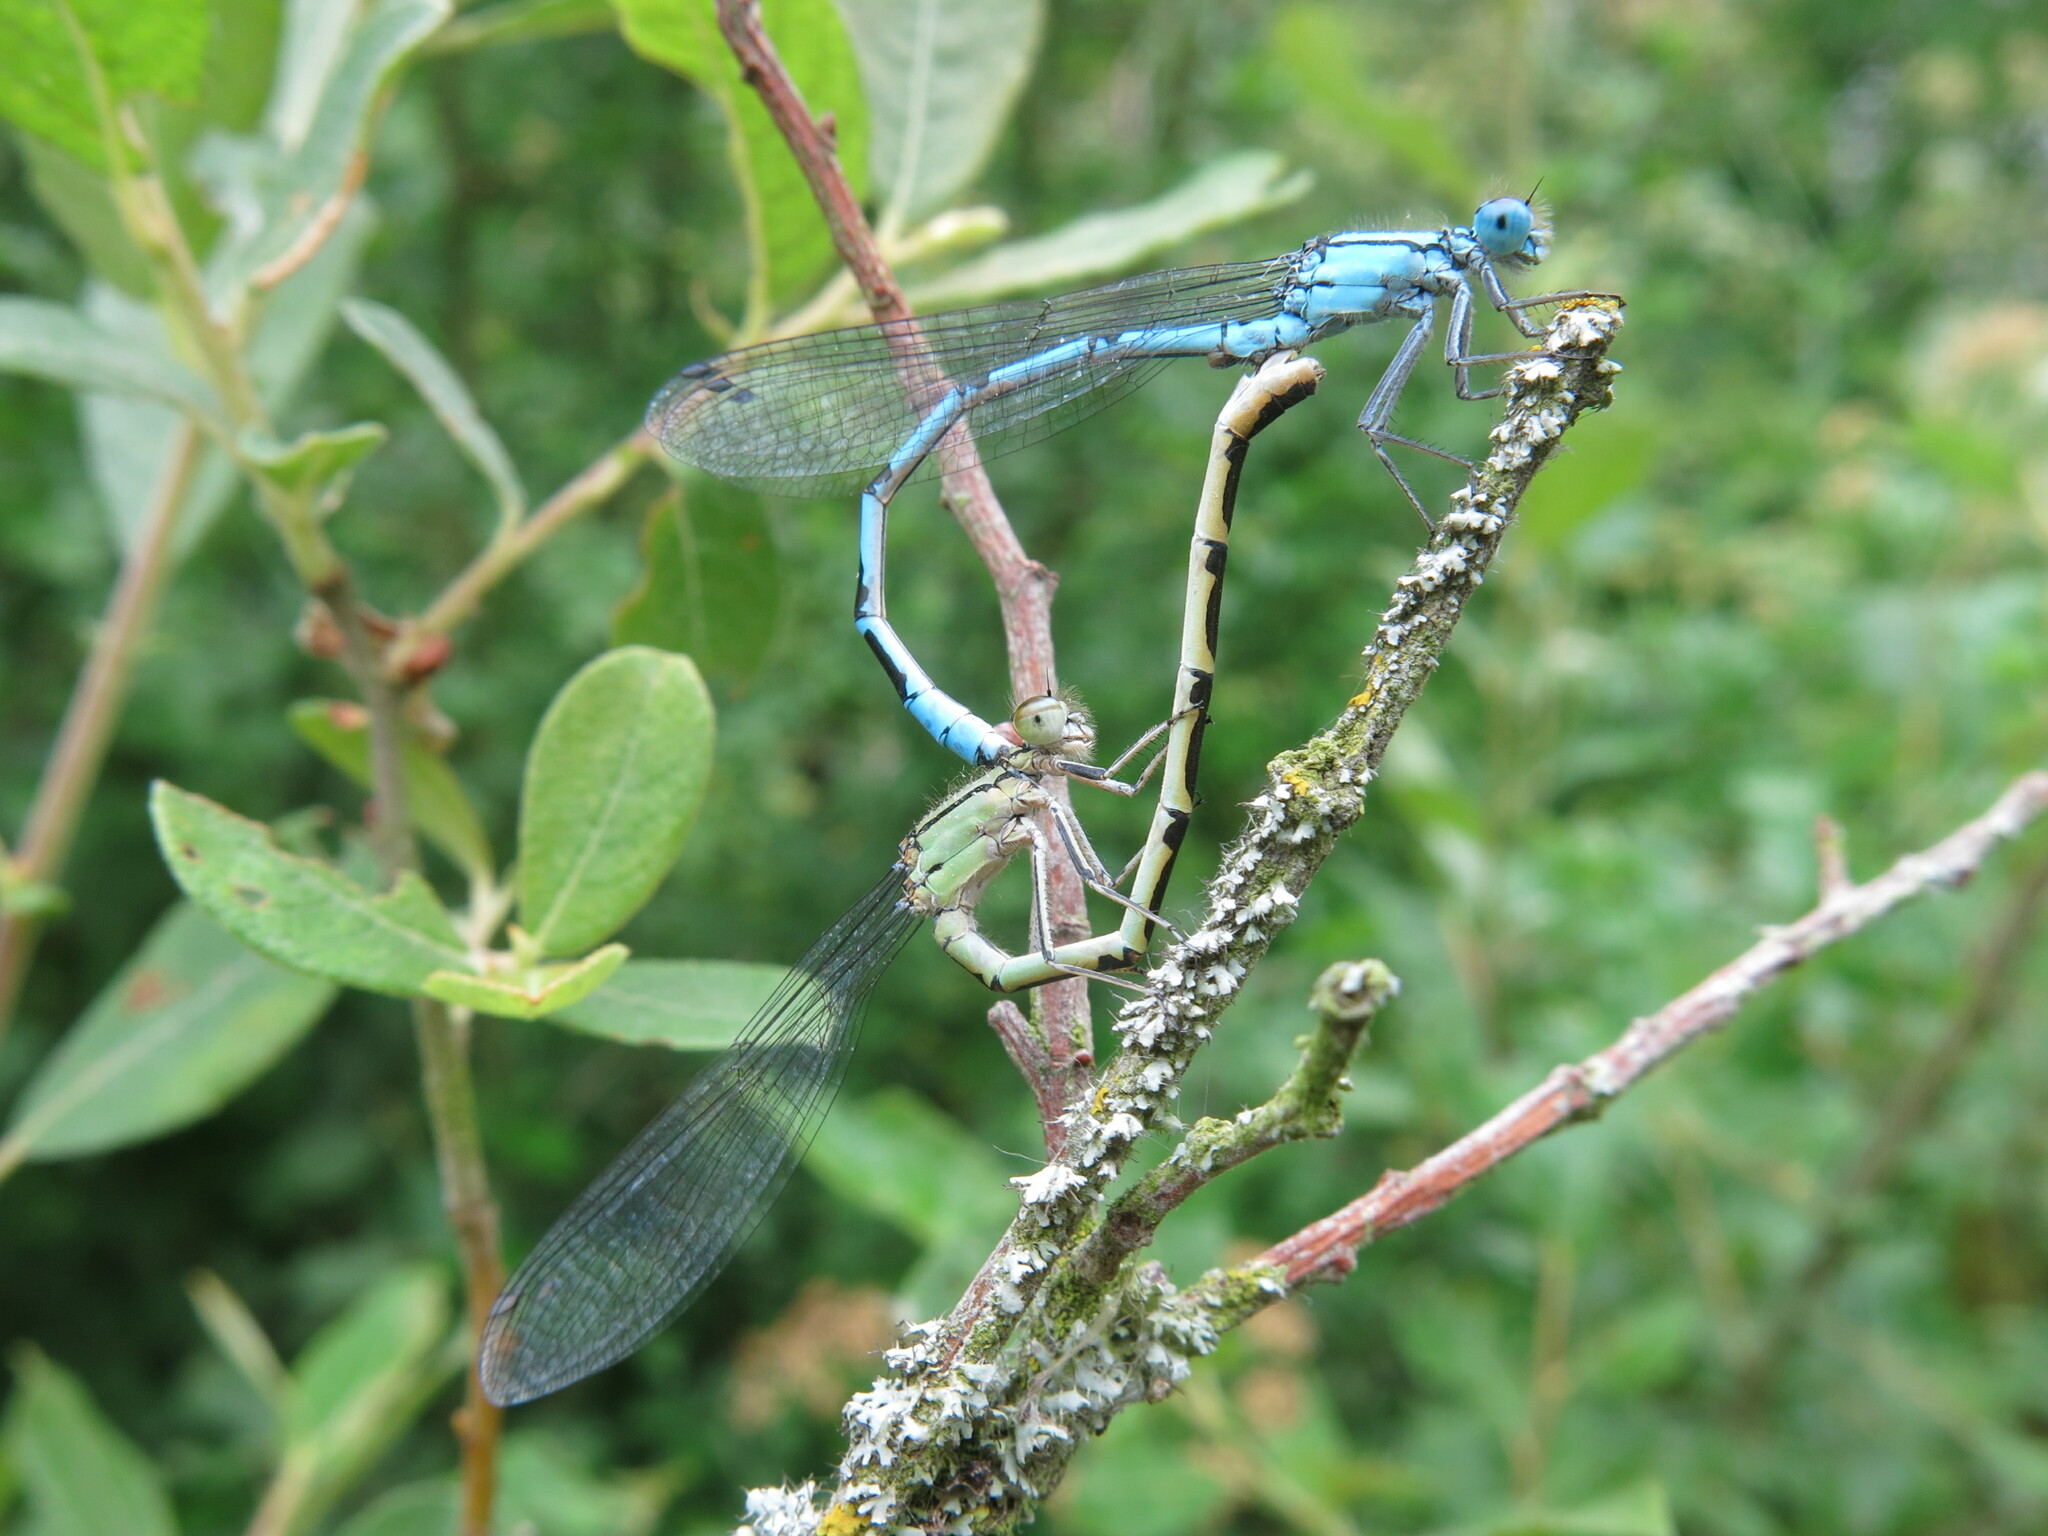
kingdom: Animalia
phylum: Arthropoda
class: Insecta
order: Odonata
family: Coenagrionidae
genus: Enallagma
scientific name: Enallagma cyathigerum
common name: Common blue damselfly
